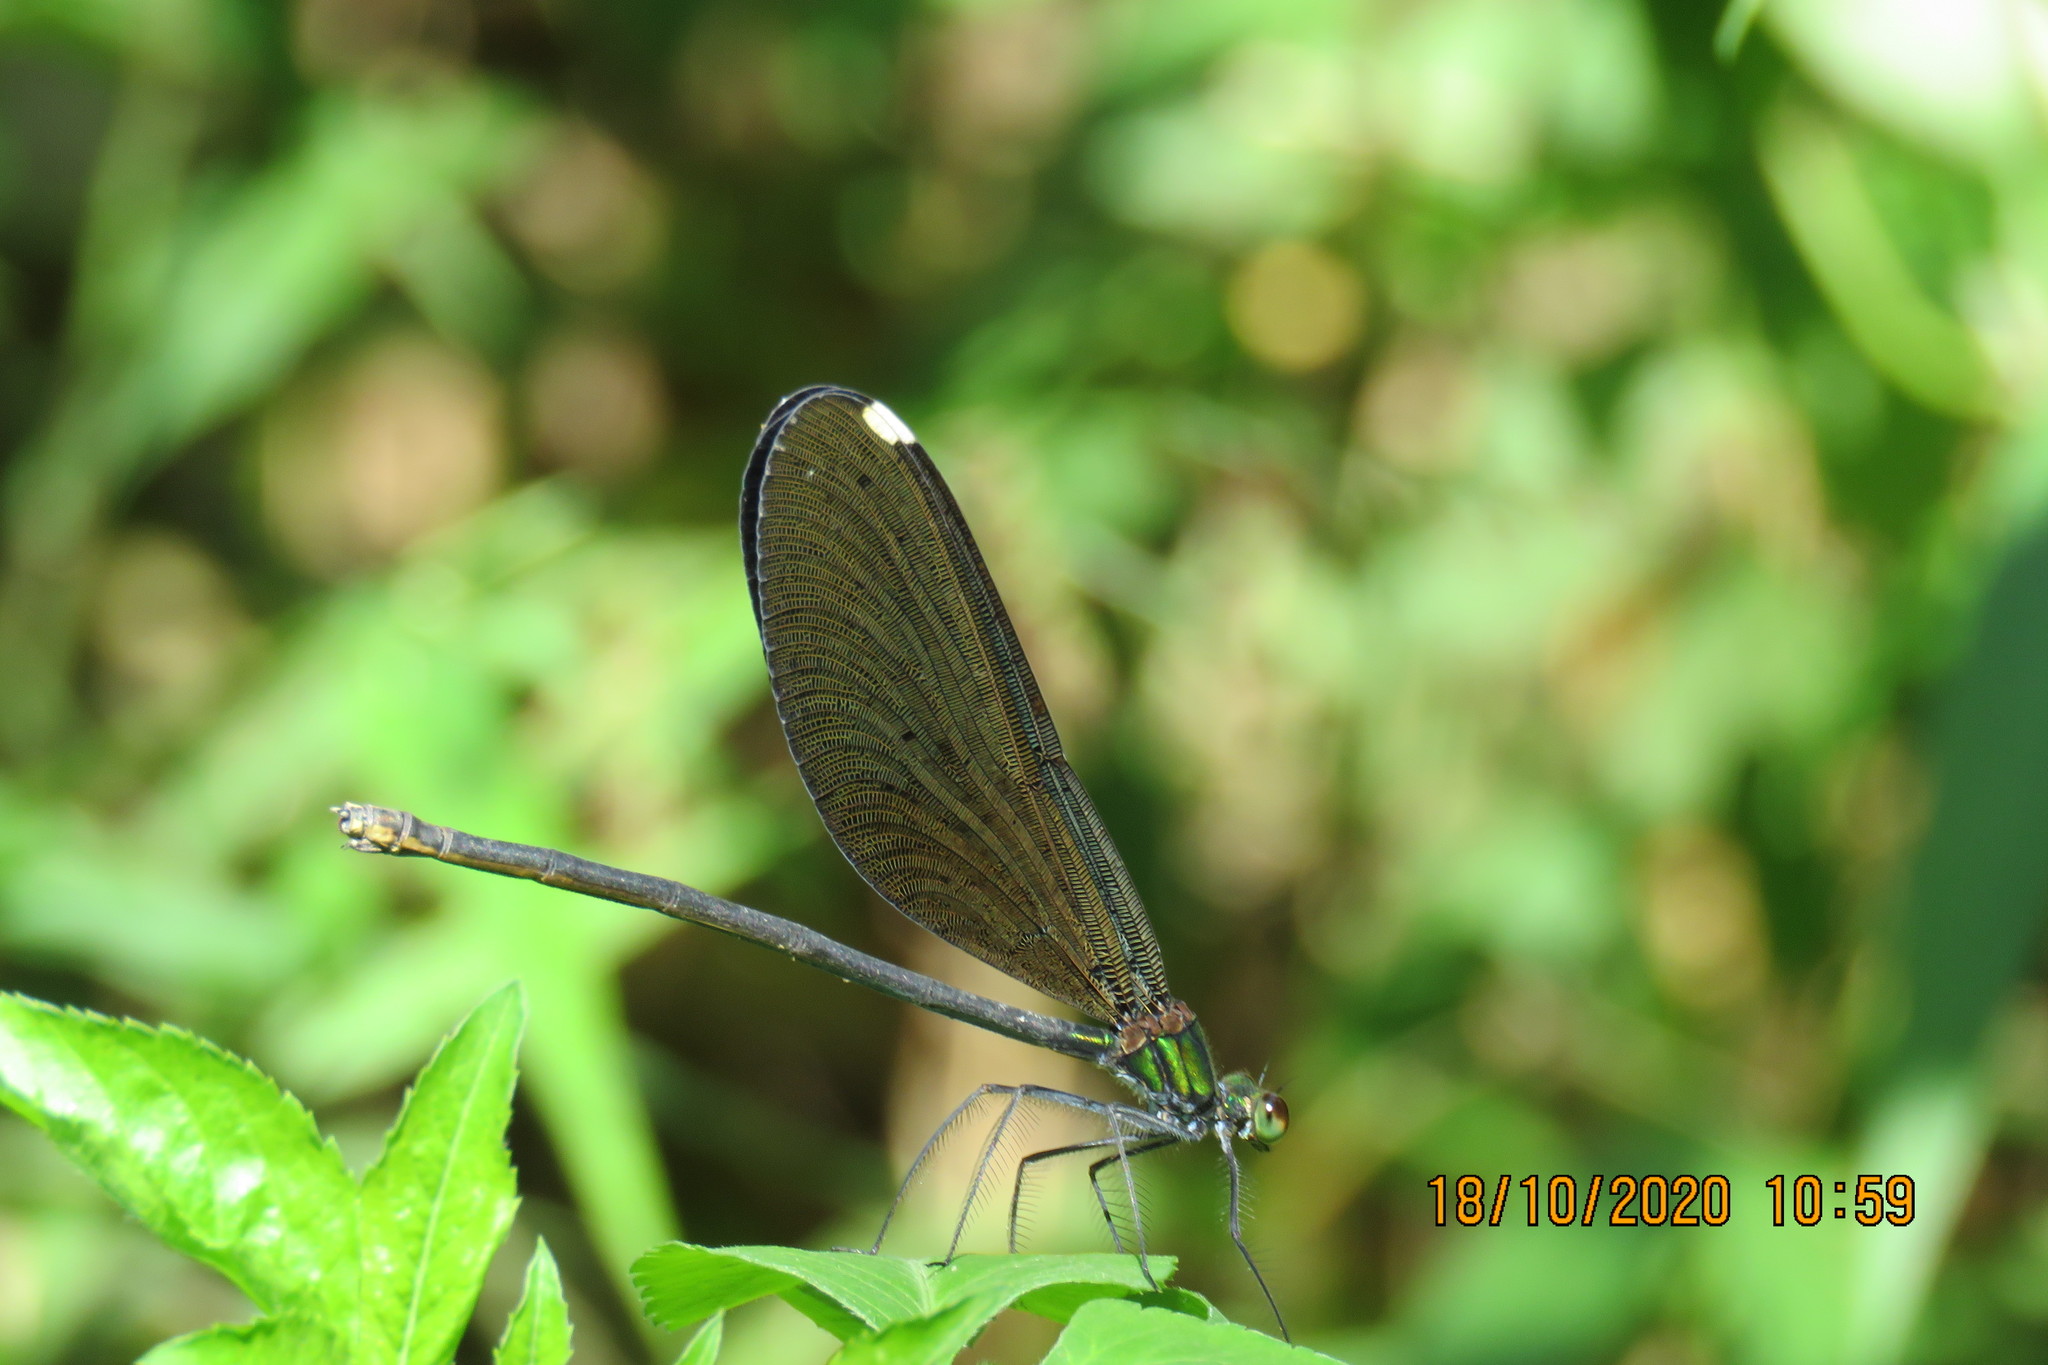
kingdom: Animalia
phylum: Arthropoda
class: Insecta
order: Odonata
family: Calopterygidae
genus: Matrona
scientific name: Matrona cyanoptera
